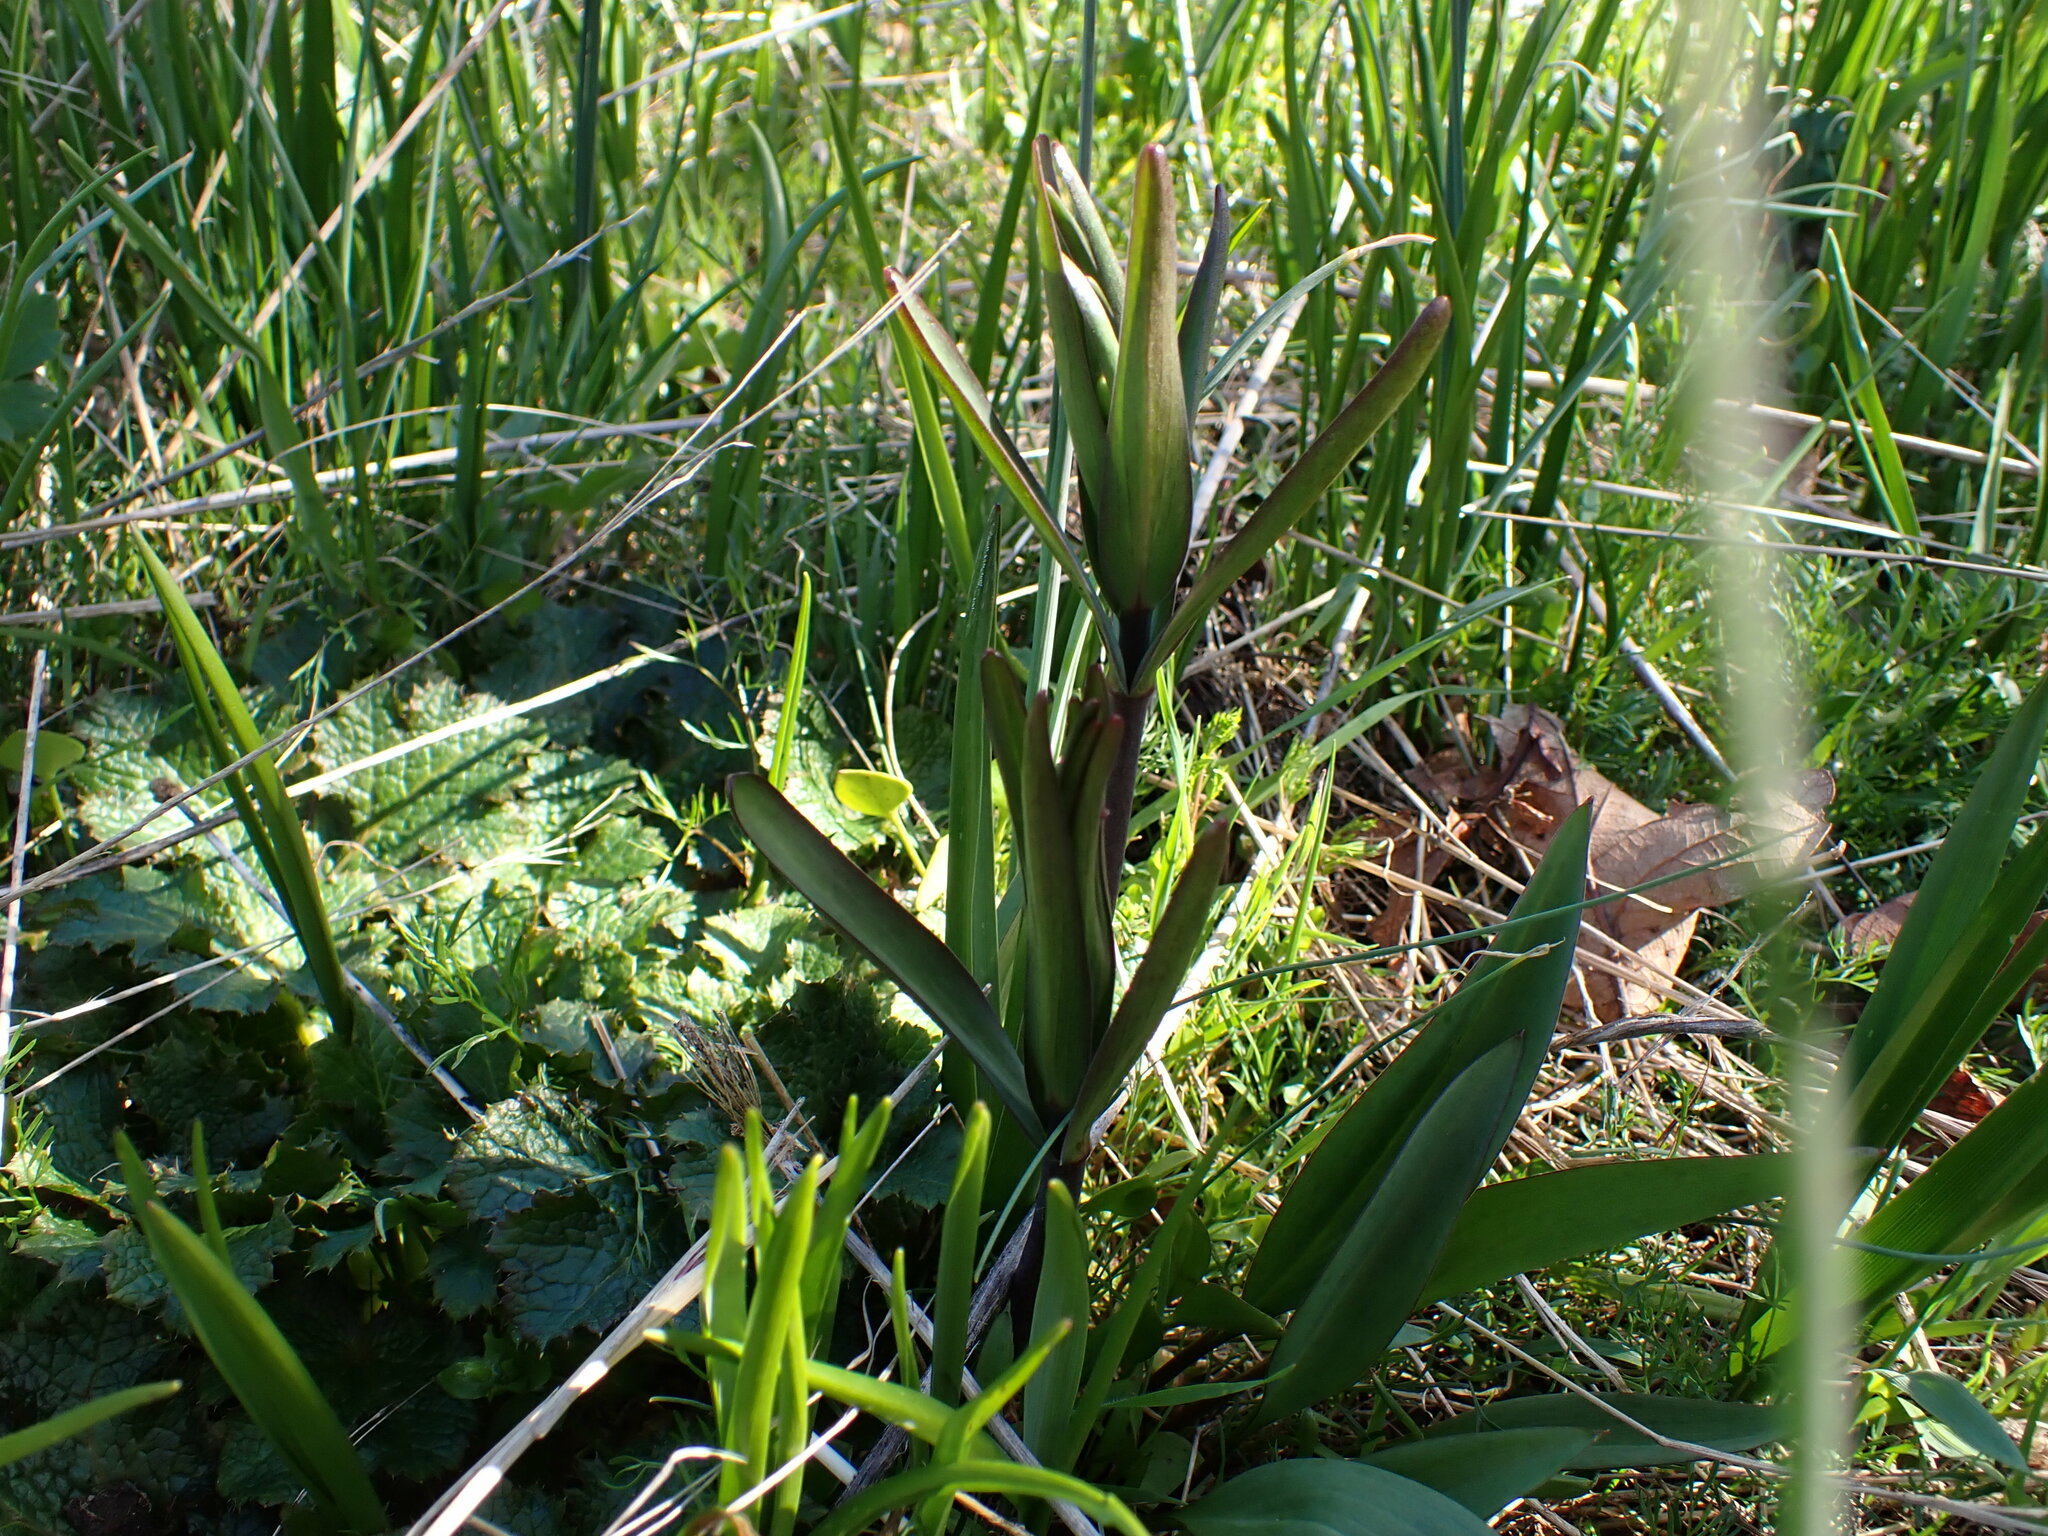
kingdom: Plantae
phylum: Tracheophyta
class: Liliopsida
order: Liliales
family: Liliaceae
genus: Fritillaria
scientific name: Fritillaria affinis
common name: Ojai fritillary
